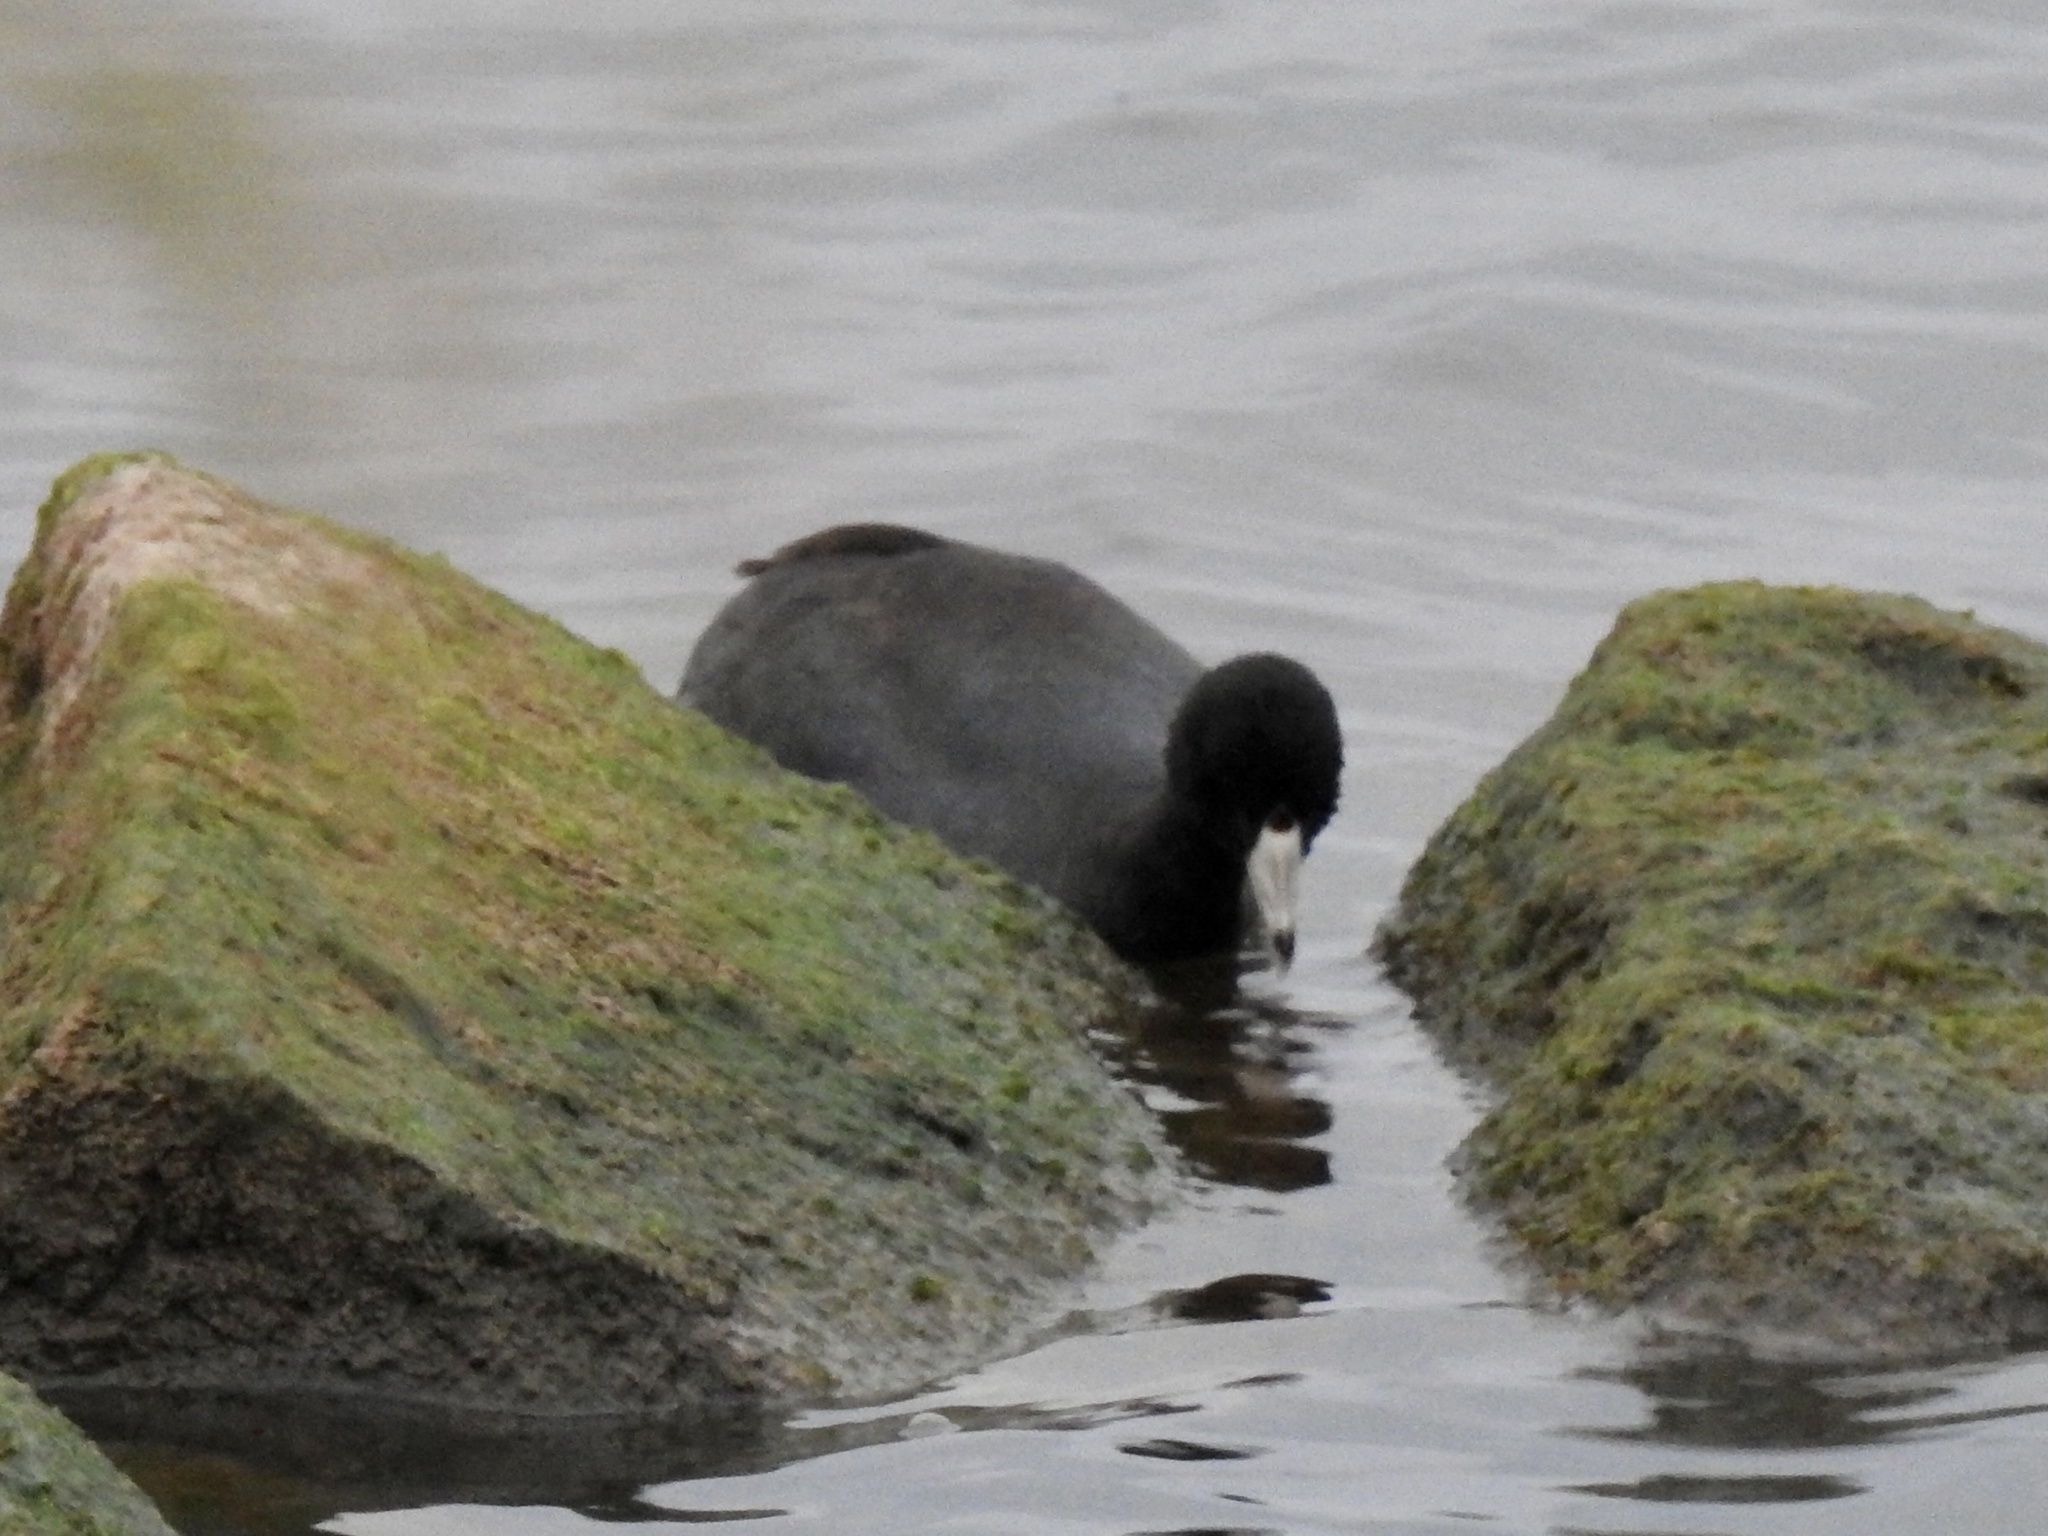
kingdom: Animalia
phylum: Chordata
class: Aves
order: Gruiformes
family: Rallidae
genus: Fulica
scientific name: Fulica americana
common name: American coot
